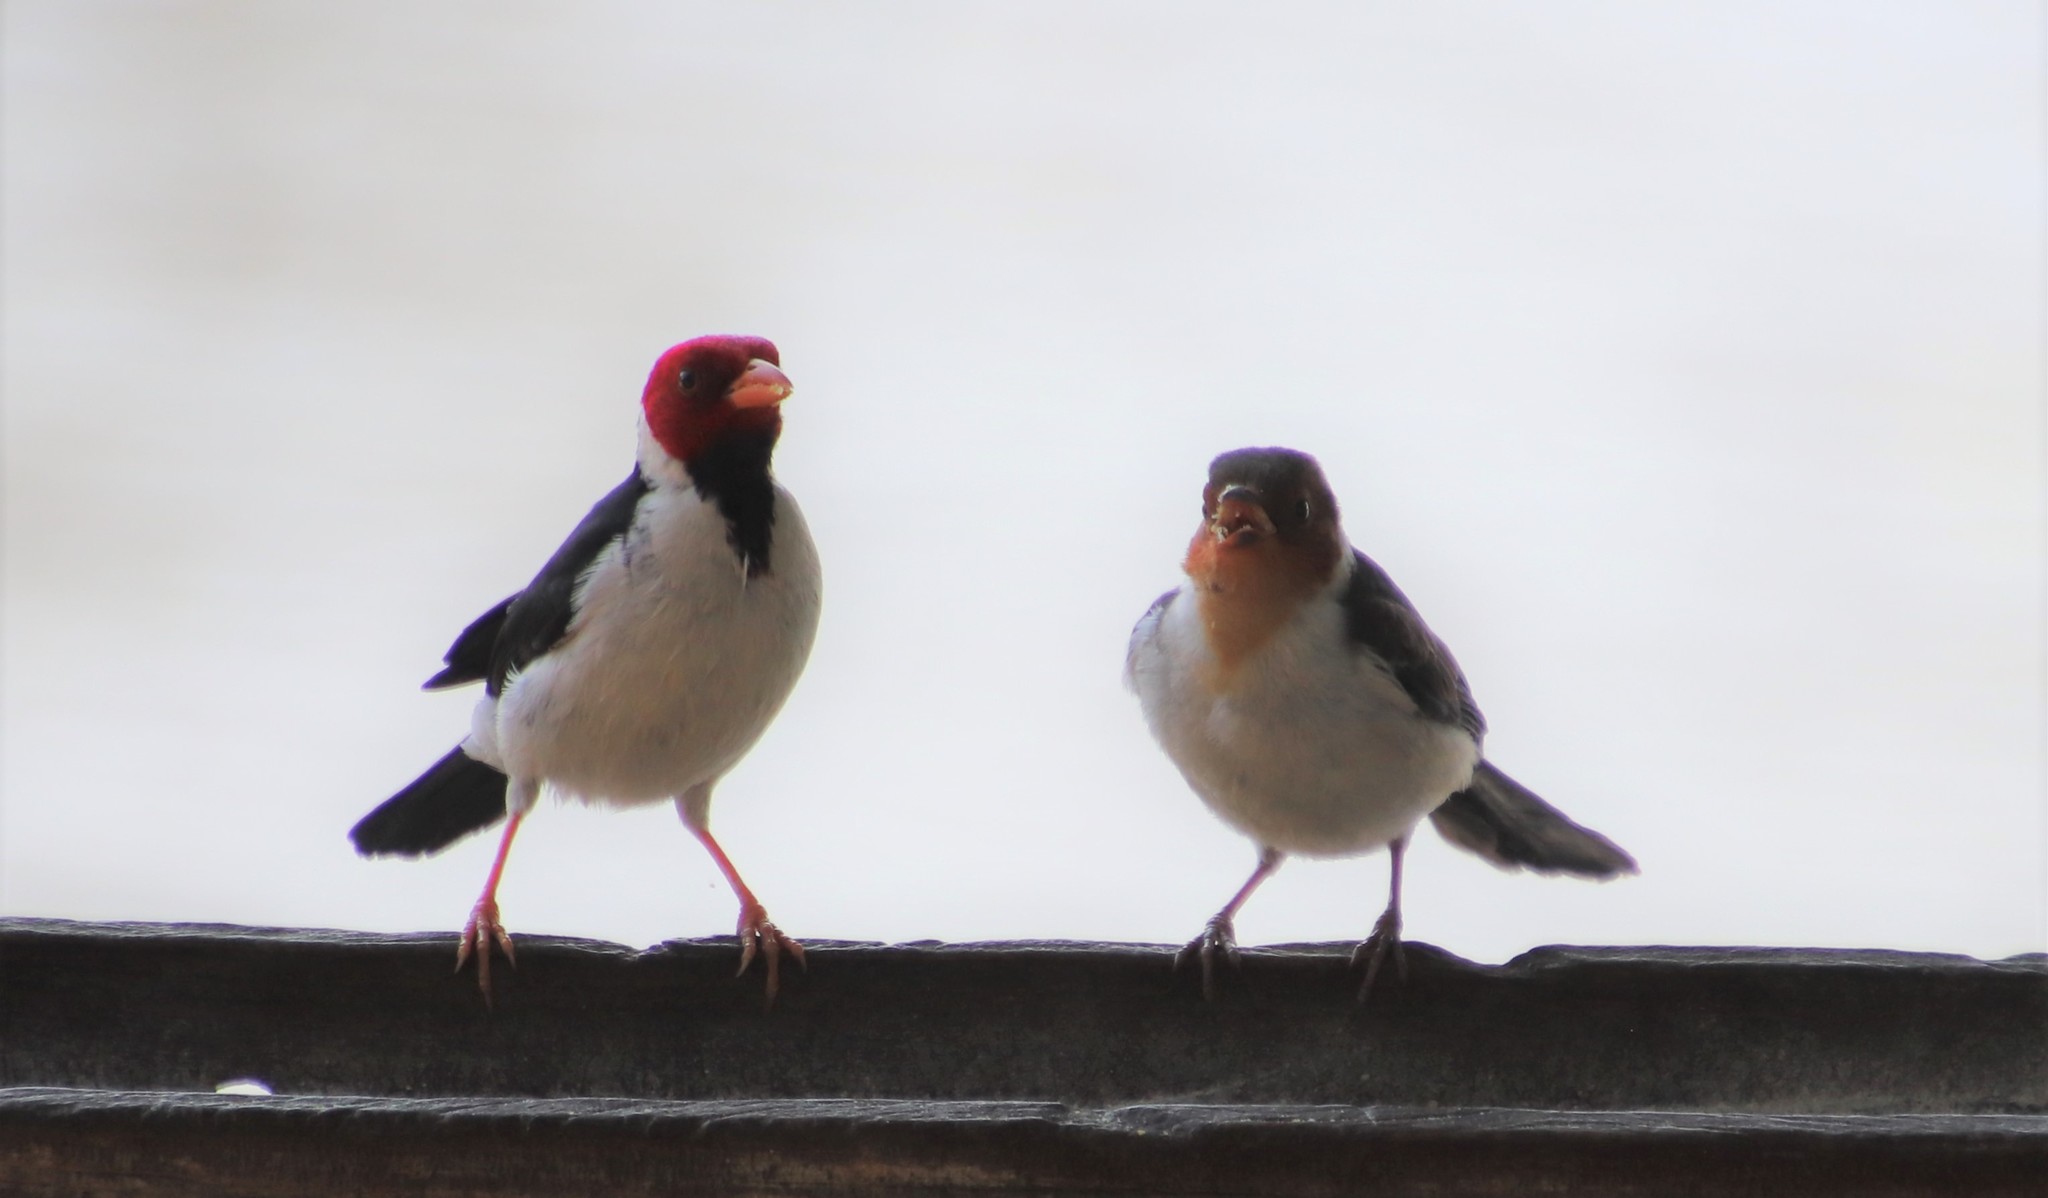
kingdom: Animalia
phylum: Chordata
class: Aves
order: Passeriformes
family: Thraupidae
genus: Paroaria
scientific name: Paroaria capitata
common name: Yellow-billed cardinal
